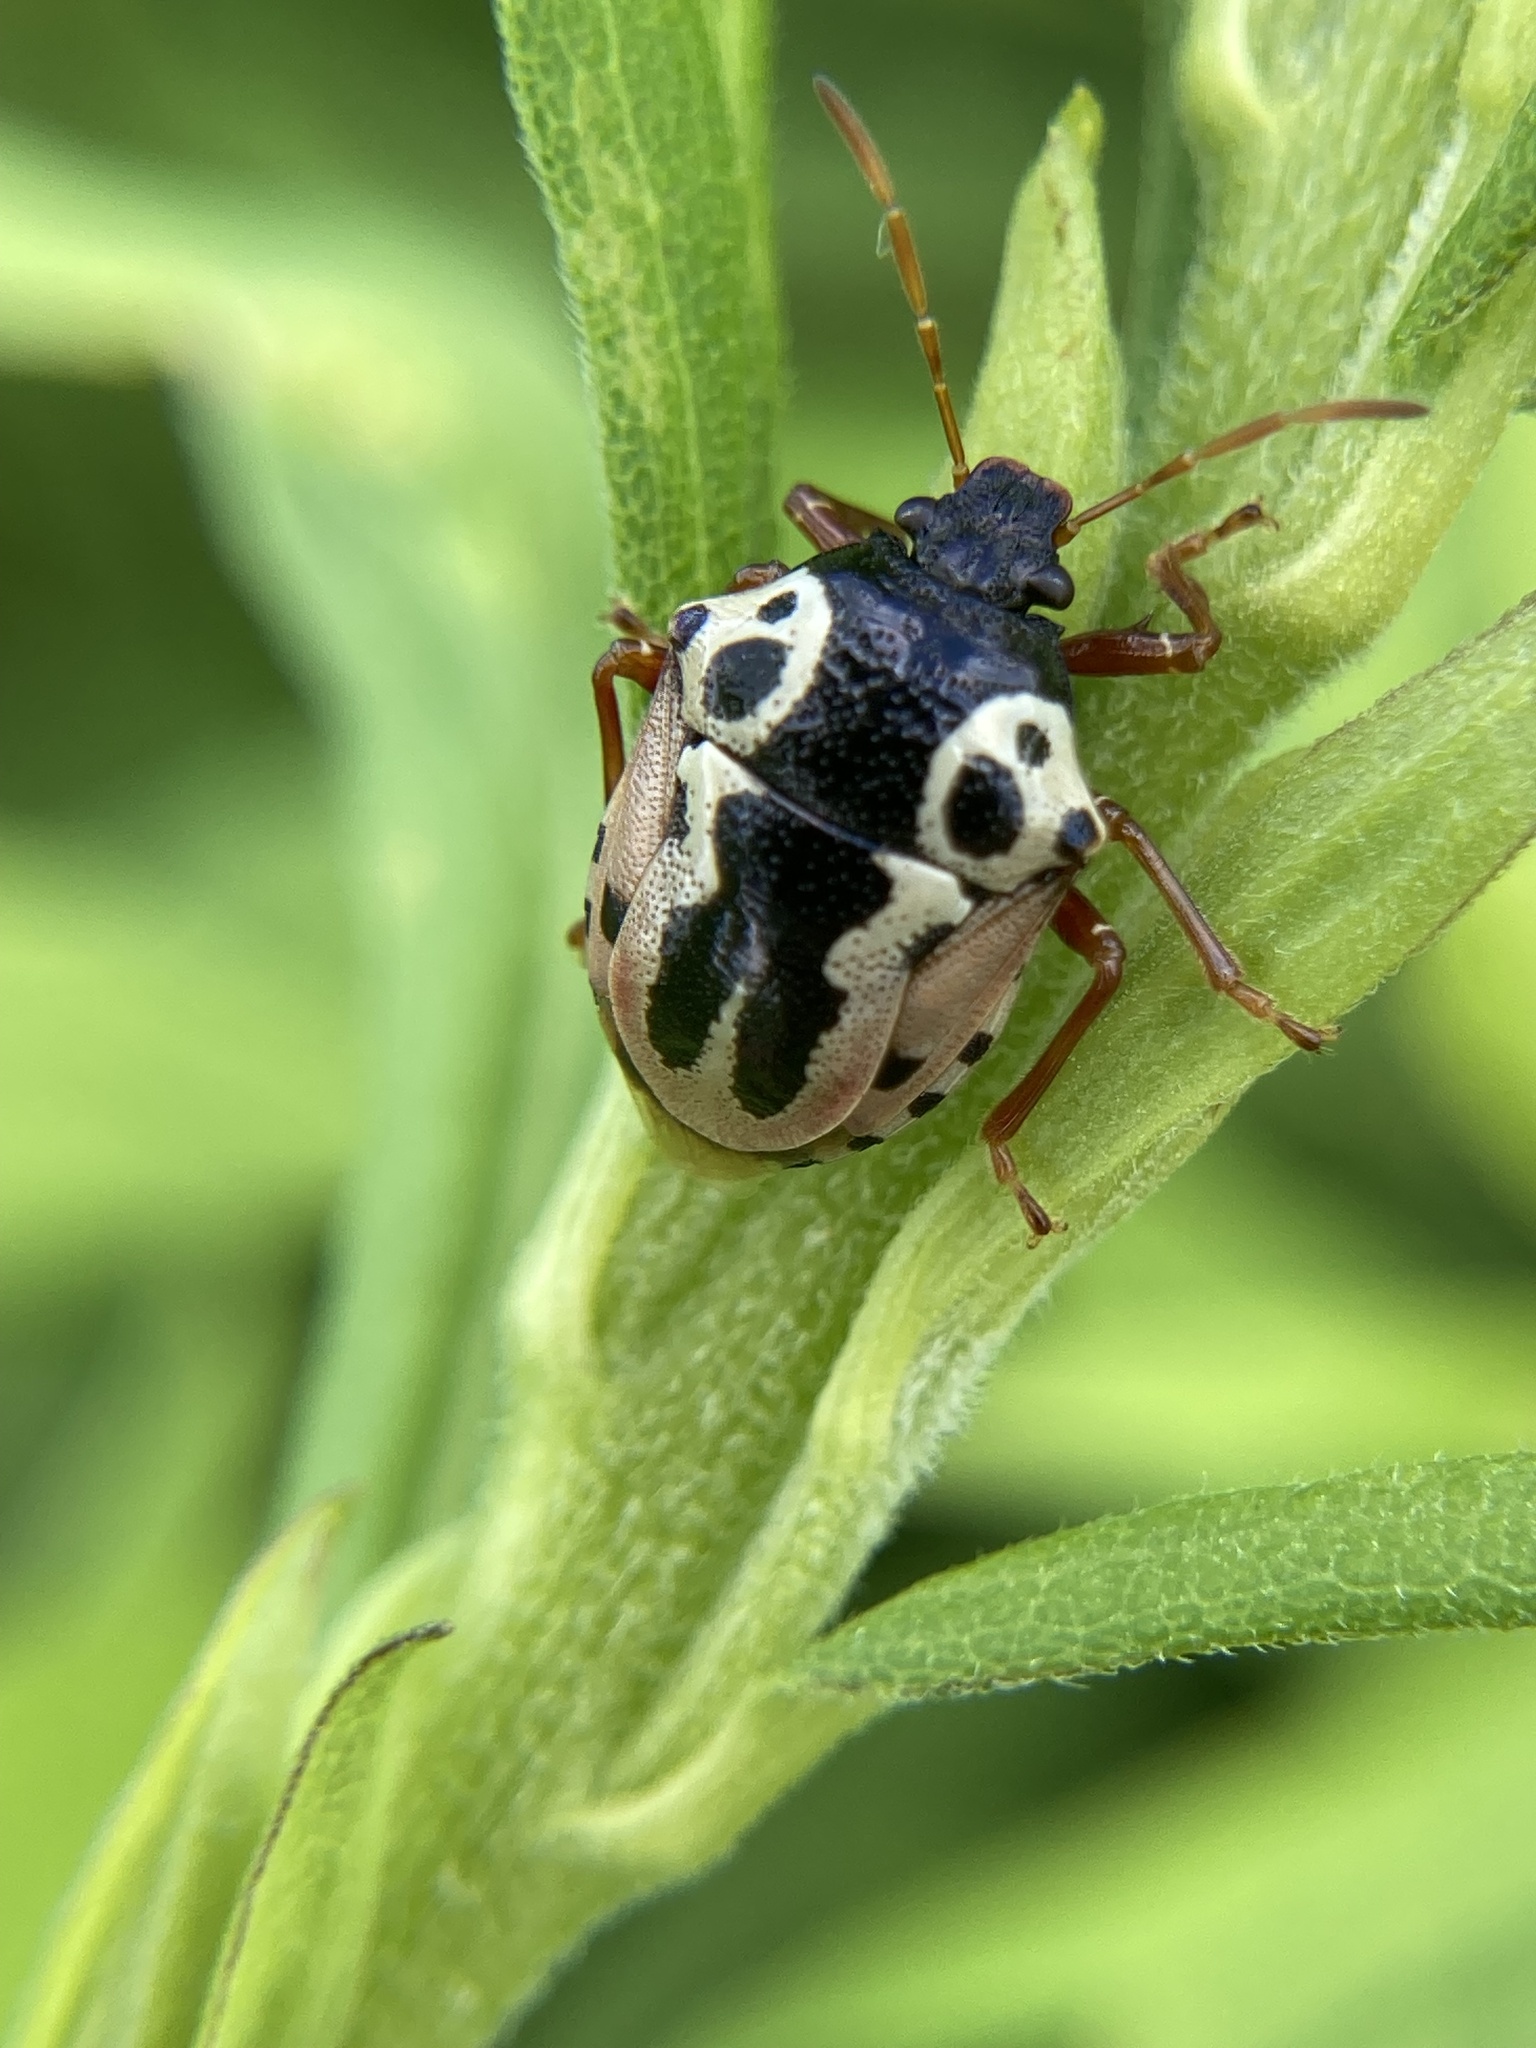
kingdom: Animalia
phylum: Arthropoda
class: Insecta
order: Hemiptera
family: Pentatomidae
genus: Stiretrus
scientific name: Stiretrus anchorago
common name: Anchor stink bug
